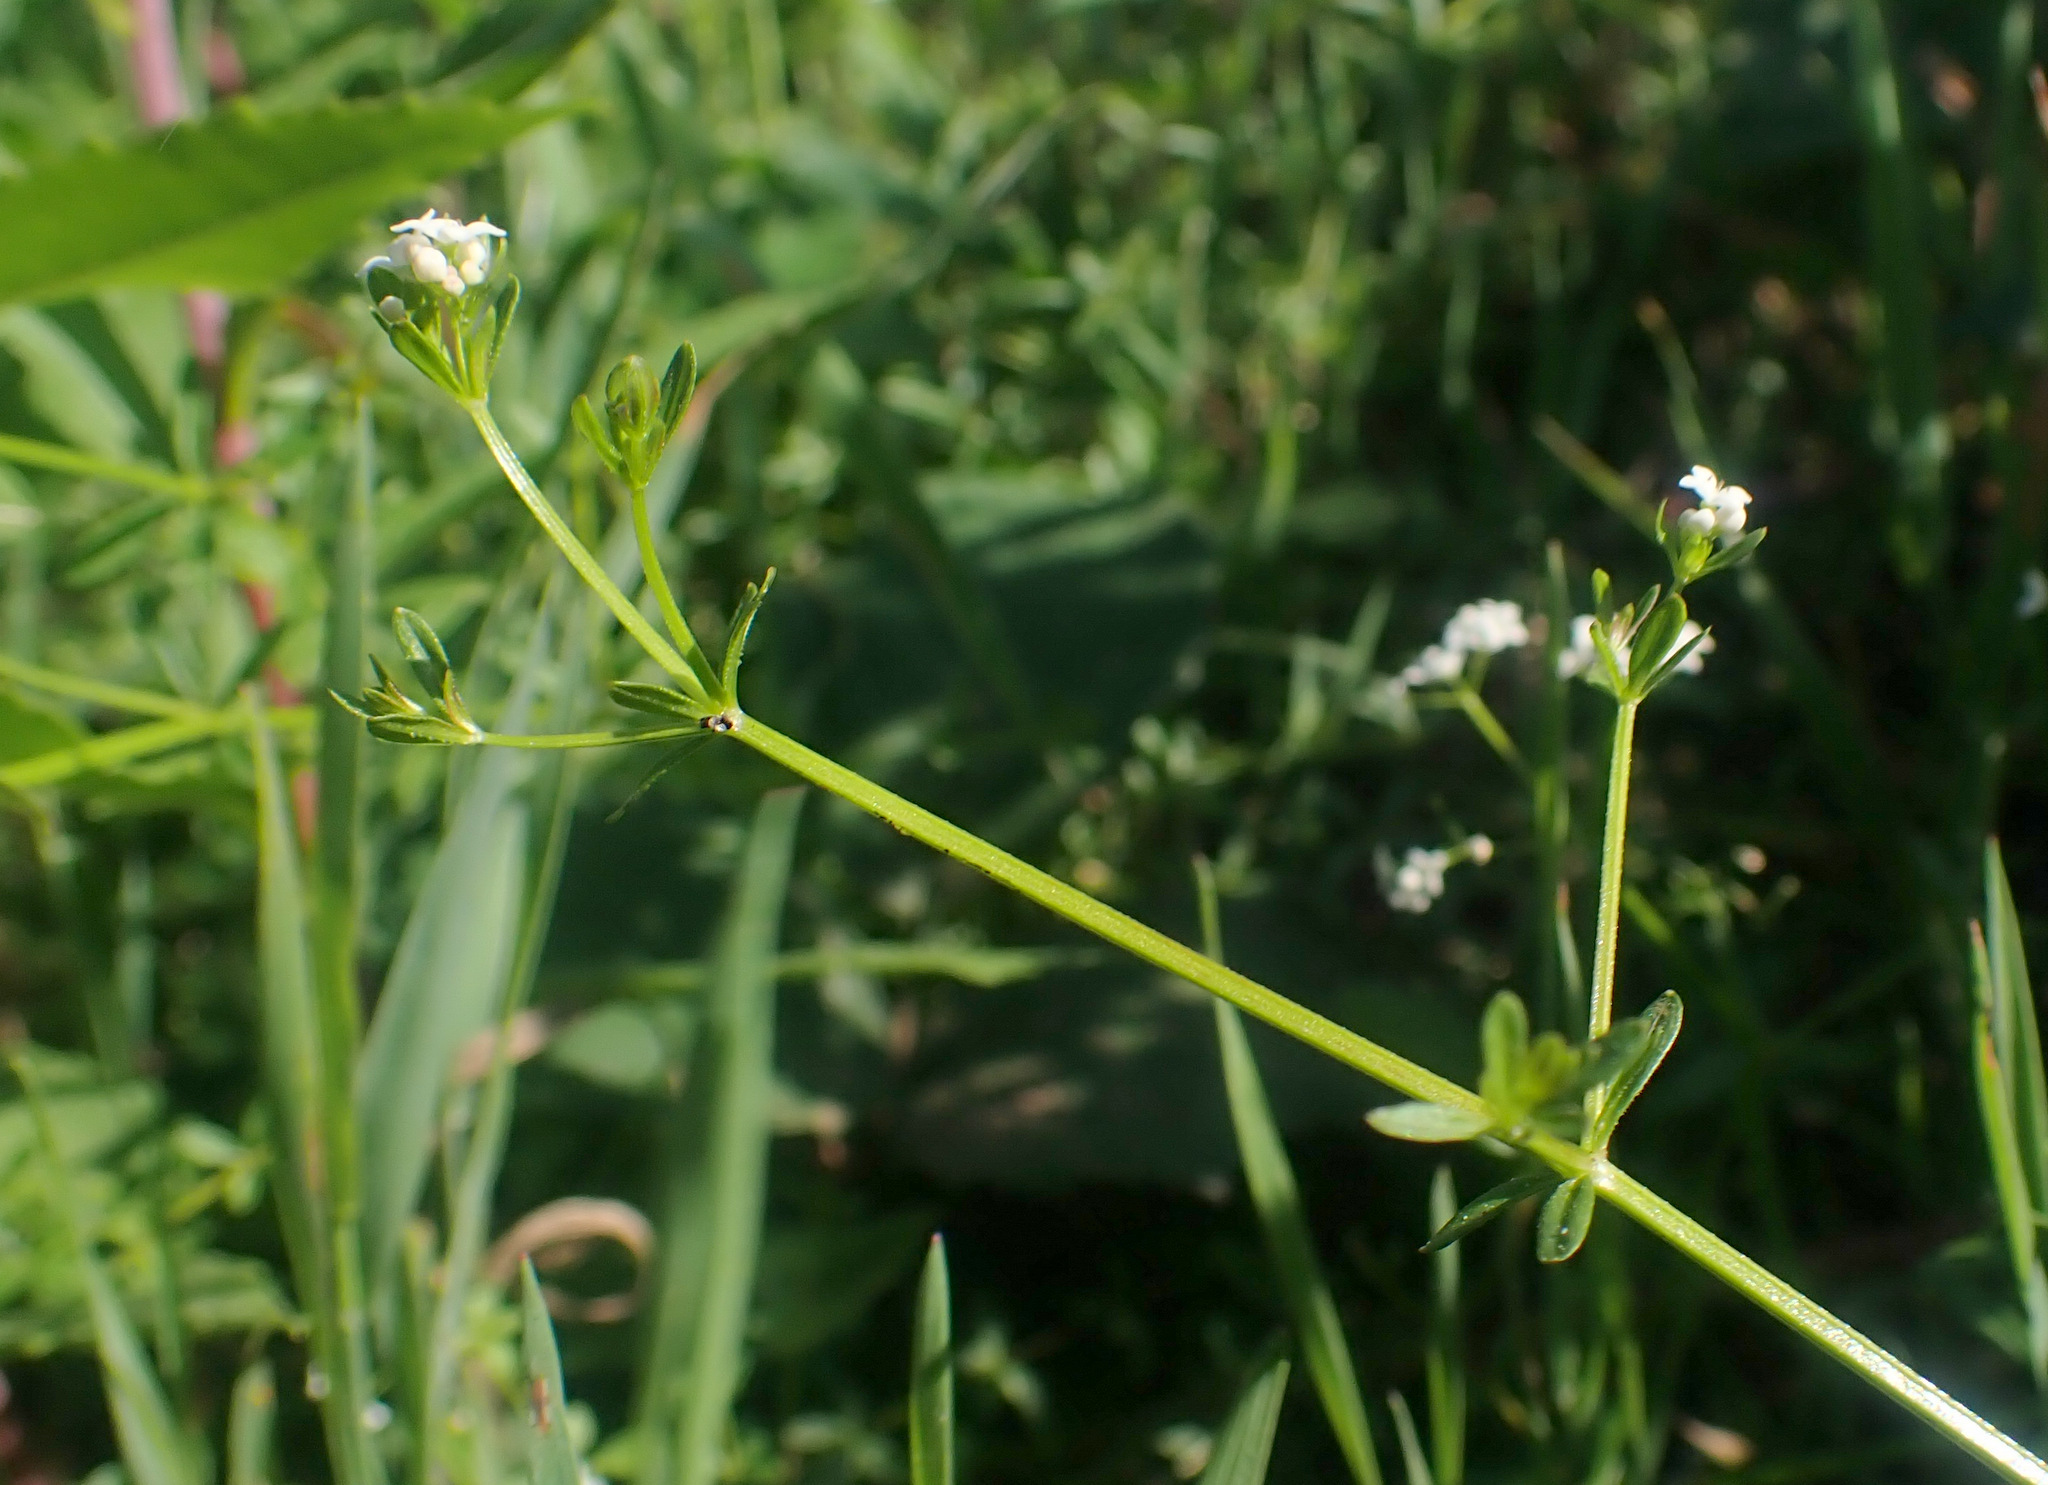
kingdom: Plantae
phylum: Tracheophyta
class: Magnoliopsida
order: Gentianales
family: Rubiaceae
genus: Galium
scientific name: Galium palustre
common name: Common marsh-bedstraw
